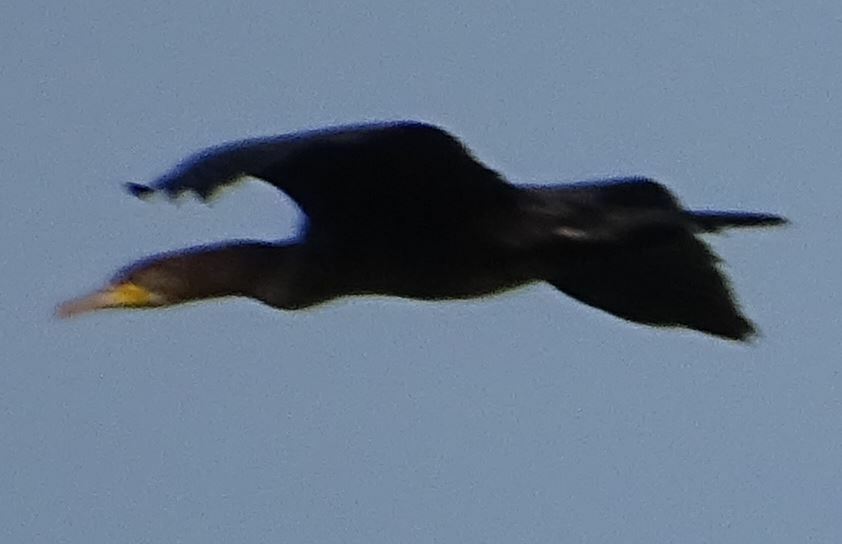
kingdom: Animalia
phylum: Chordata
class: Aves
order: Suliformes
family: Phalacrocoracidae
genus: Phalacrocorax
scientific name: Phalacrocorax carbo
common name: Great cormorant
